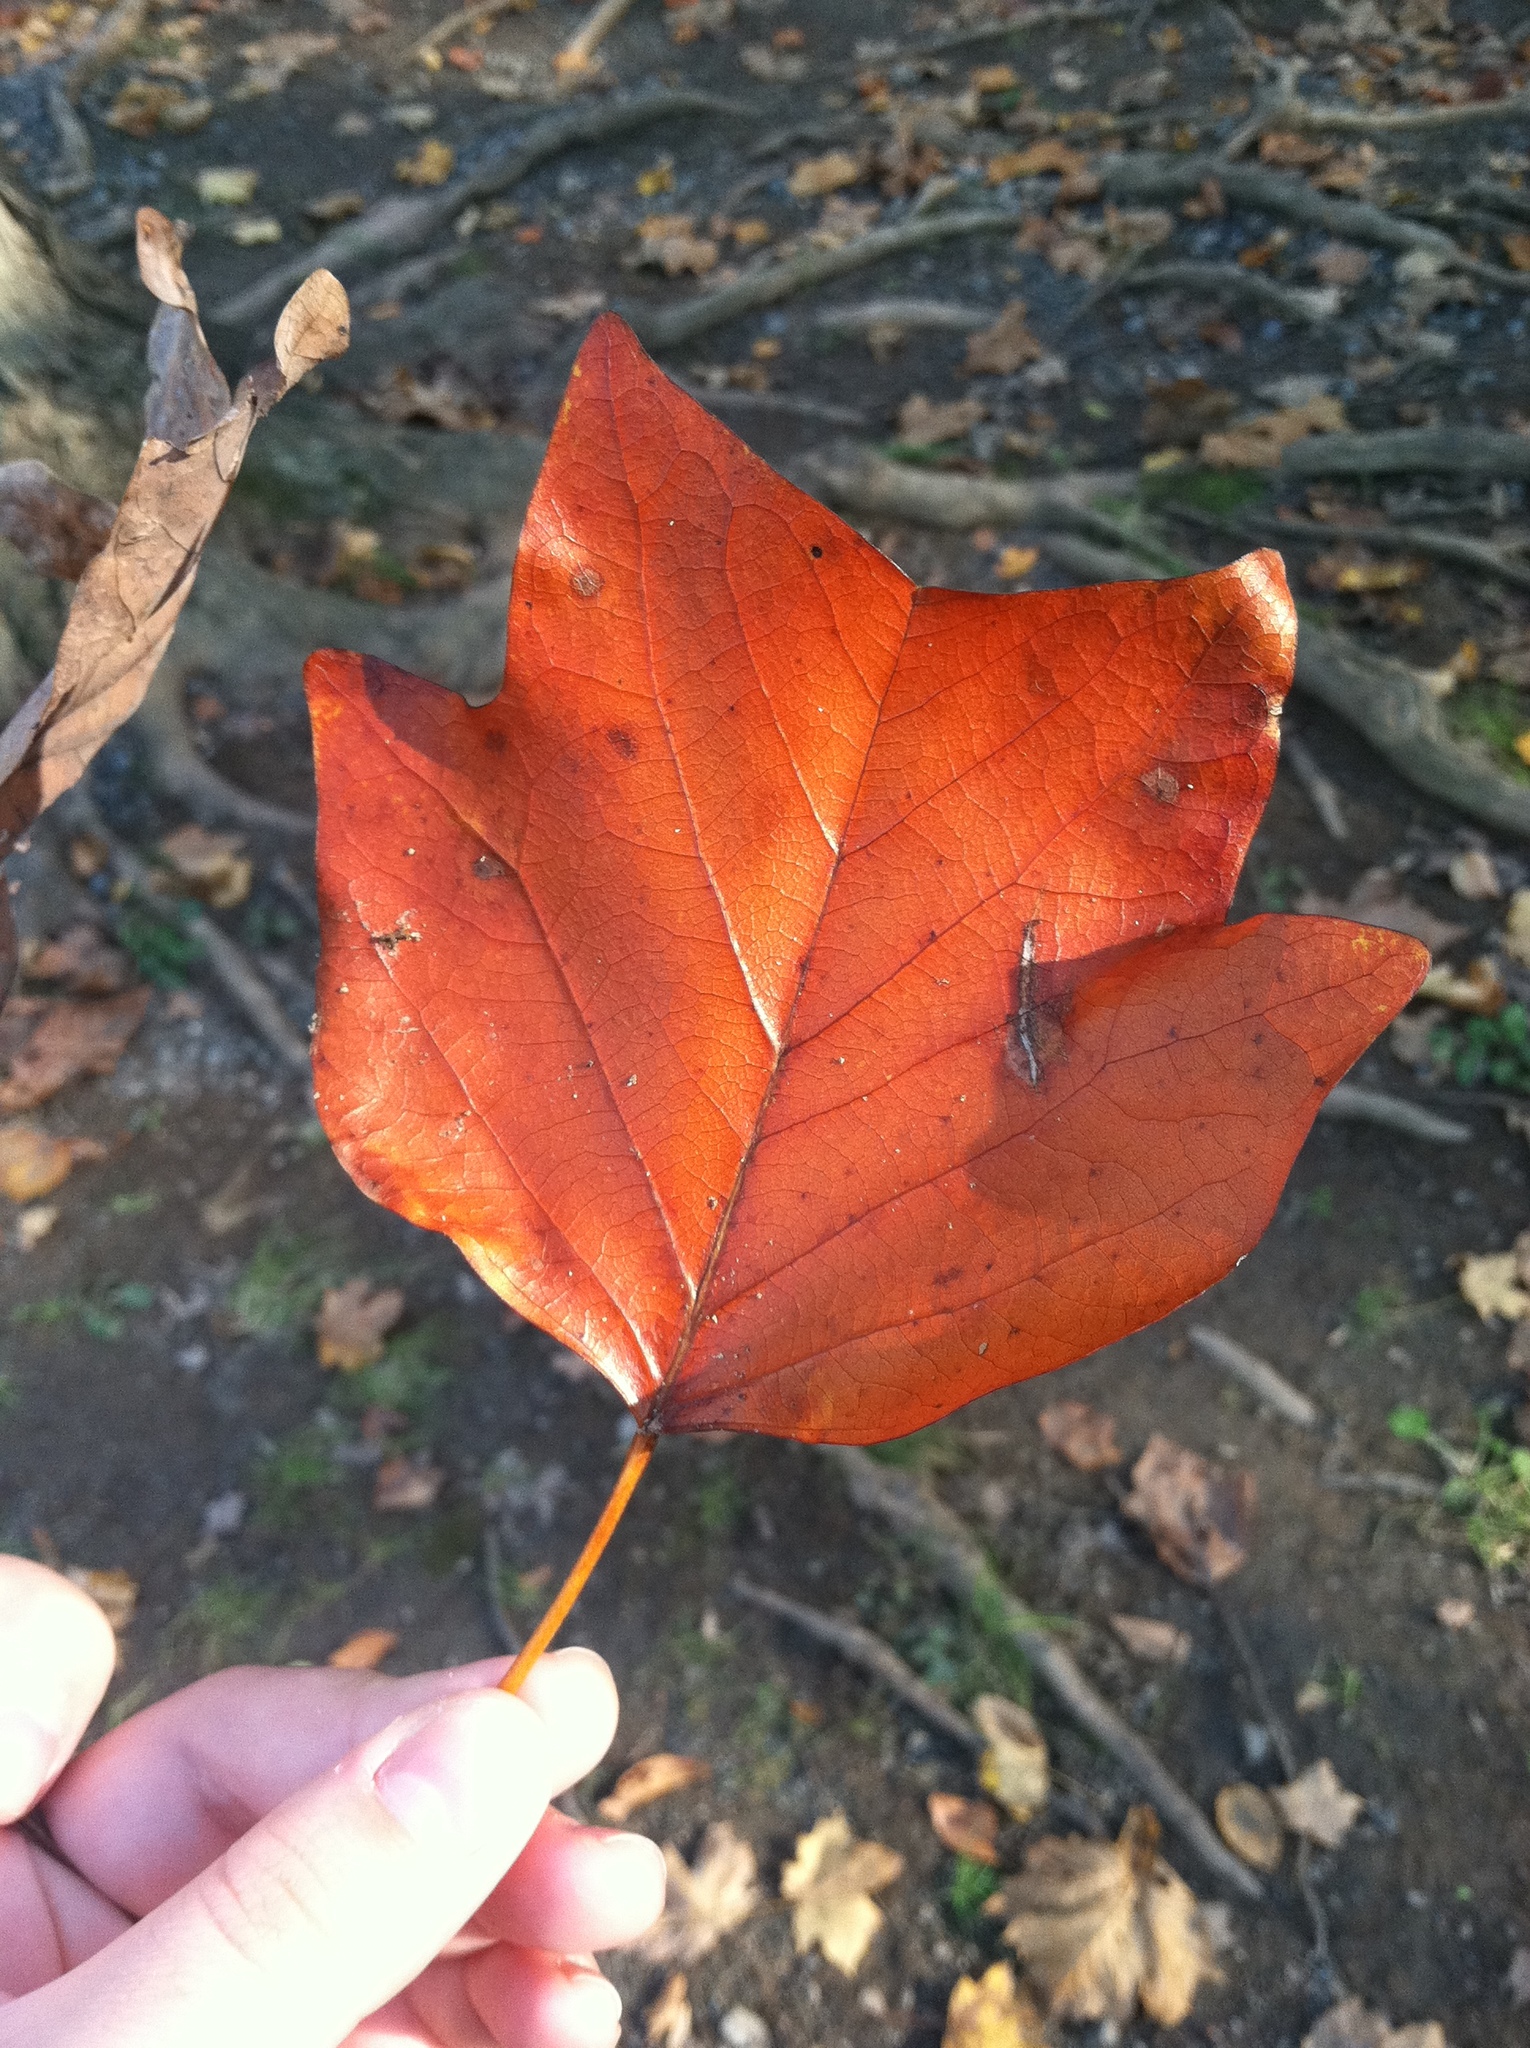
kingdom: Plantae
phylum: Tracheophyta
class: Magnoliopsida
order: Magnoliales
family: Magnoliaceae
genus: Liriodendron
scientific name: Liriodendron tulipifera
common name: Tulip tree
